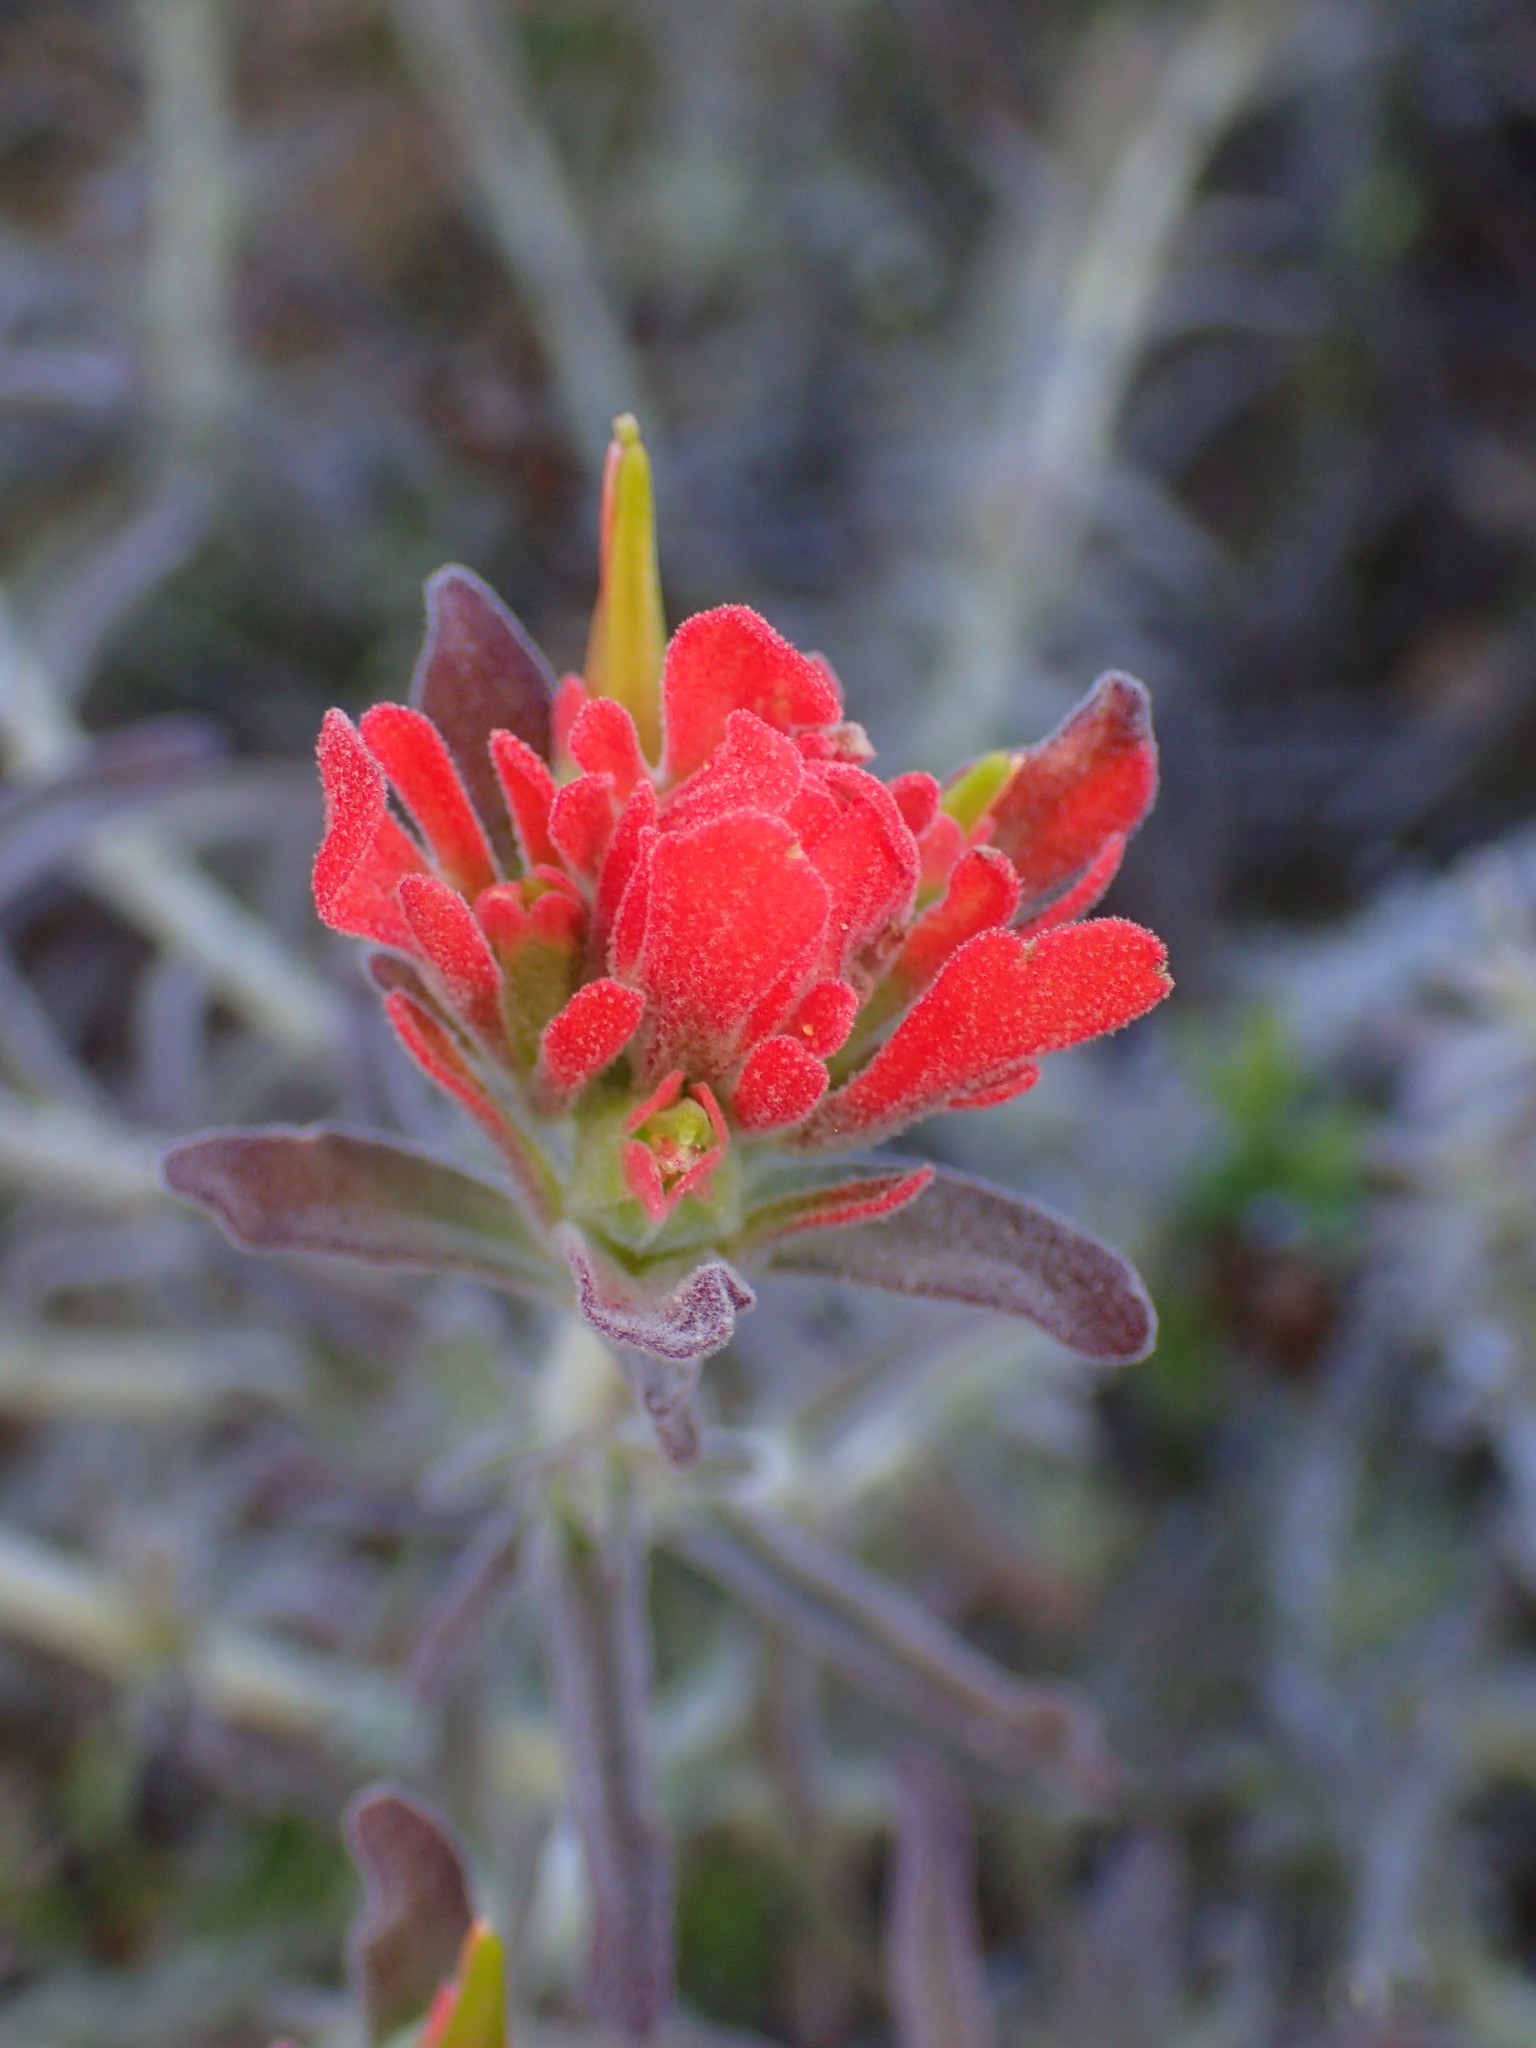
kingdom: Plantae
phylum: Tracheophyta
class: Magnoliopsida
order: Lamiales
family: Orobanchaceae
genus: Castilleja
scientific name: Castilleja foliolosa
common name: Woolly indian paintbrush
